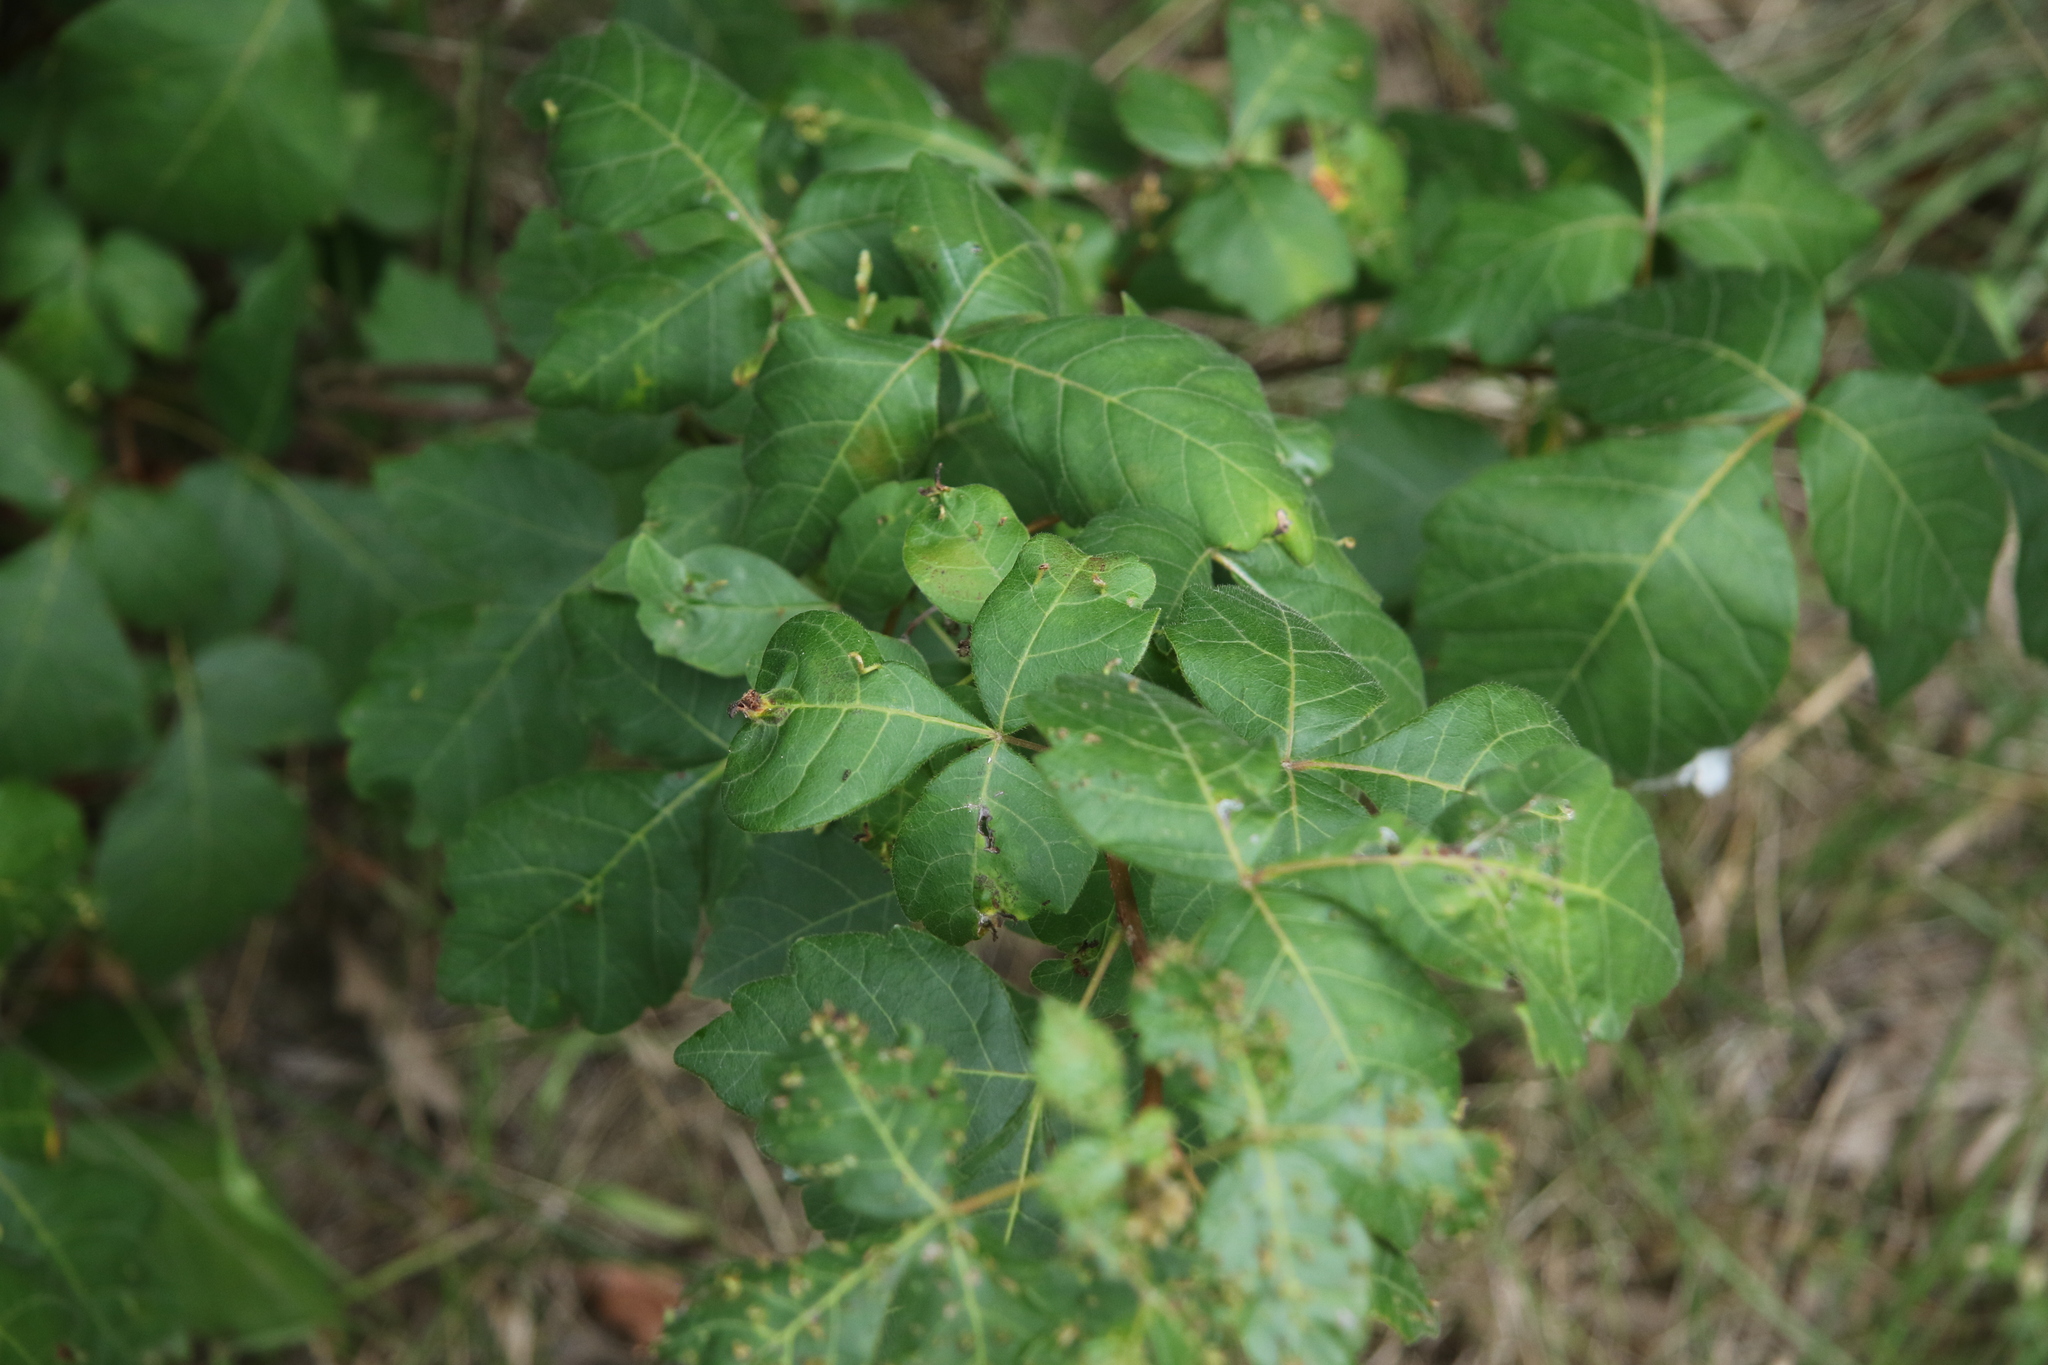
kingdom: Plantae
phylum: Tracheophyta
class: Magnoliopsida
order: Sapindales
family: Anacardiaceae
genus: Rhus
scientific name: Rhus aromatica
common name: Aromatic sumac
